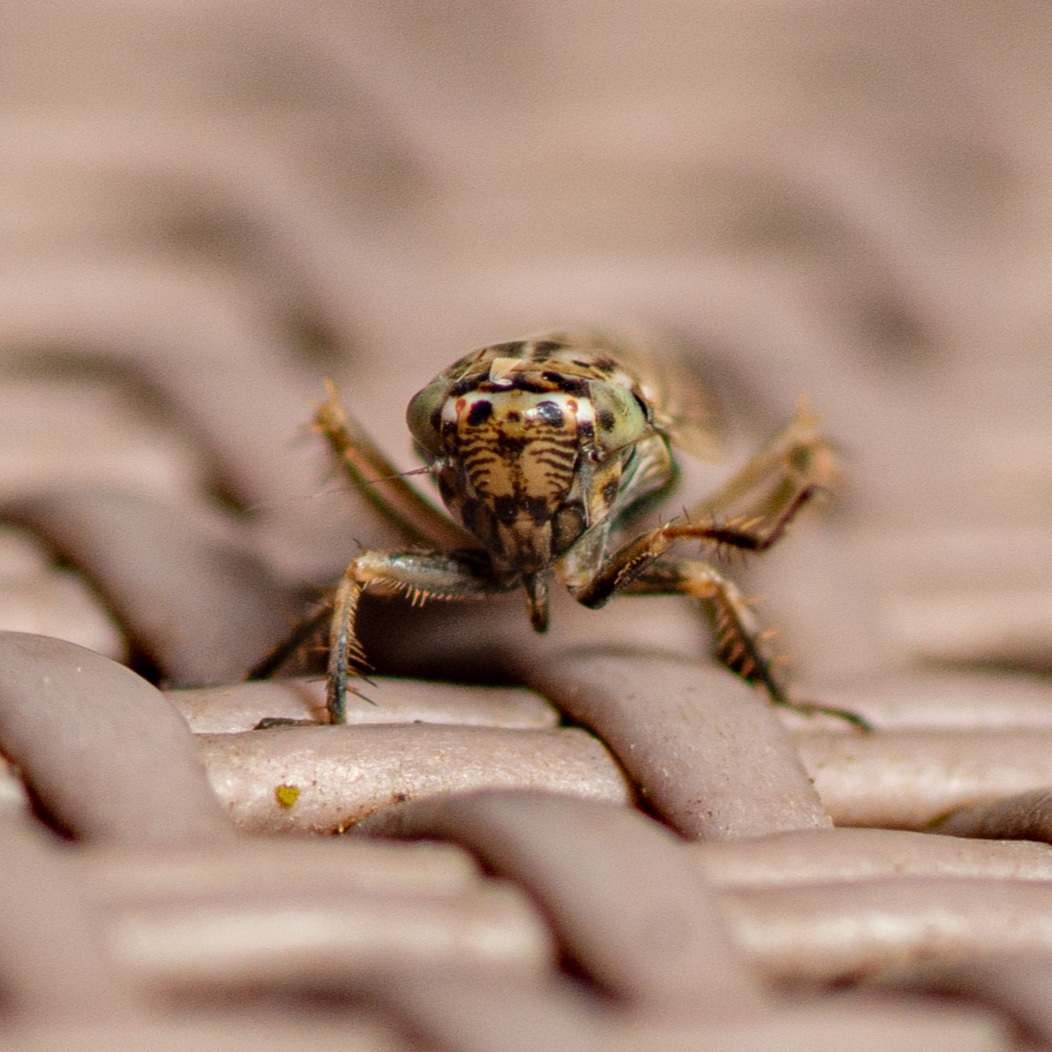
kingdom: Animalia
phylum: Arthropoda
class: Insecta
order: Hemiptera
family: Cicadellidae
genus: Exitianus
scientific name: Exitianus exitiosus
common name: Gray lawn leafhopper
